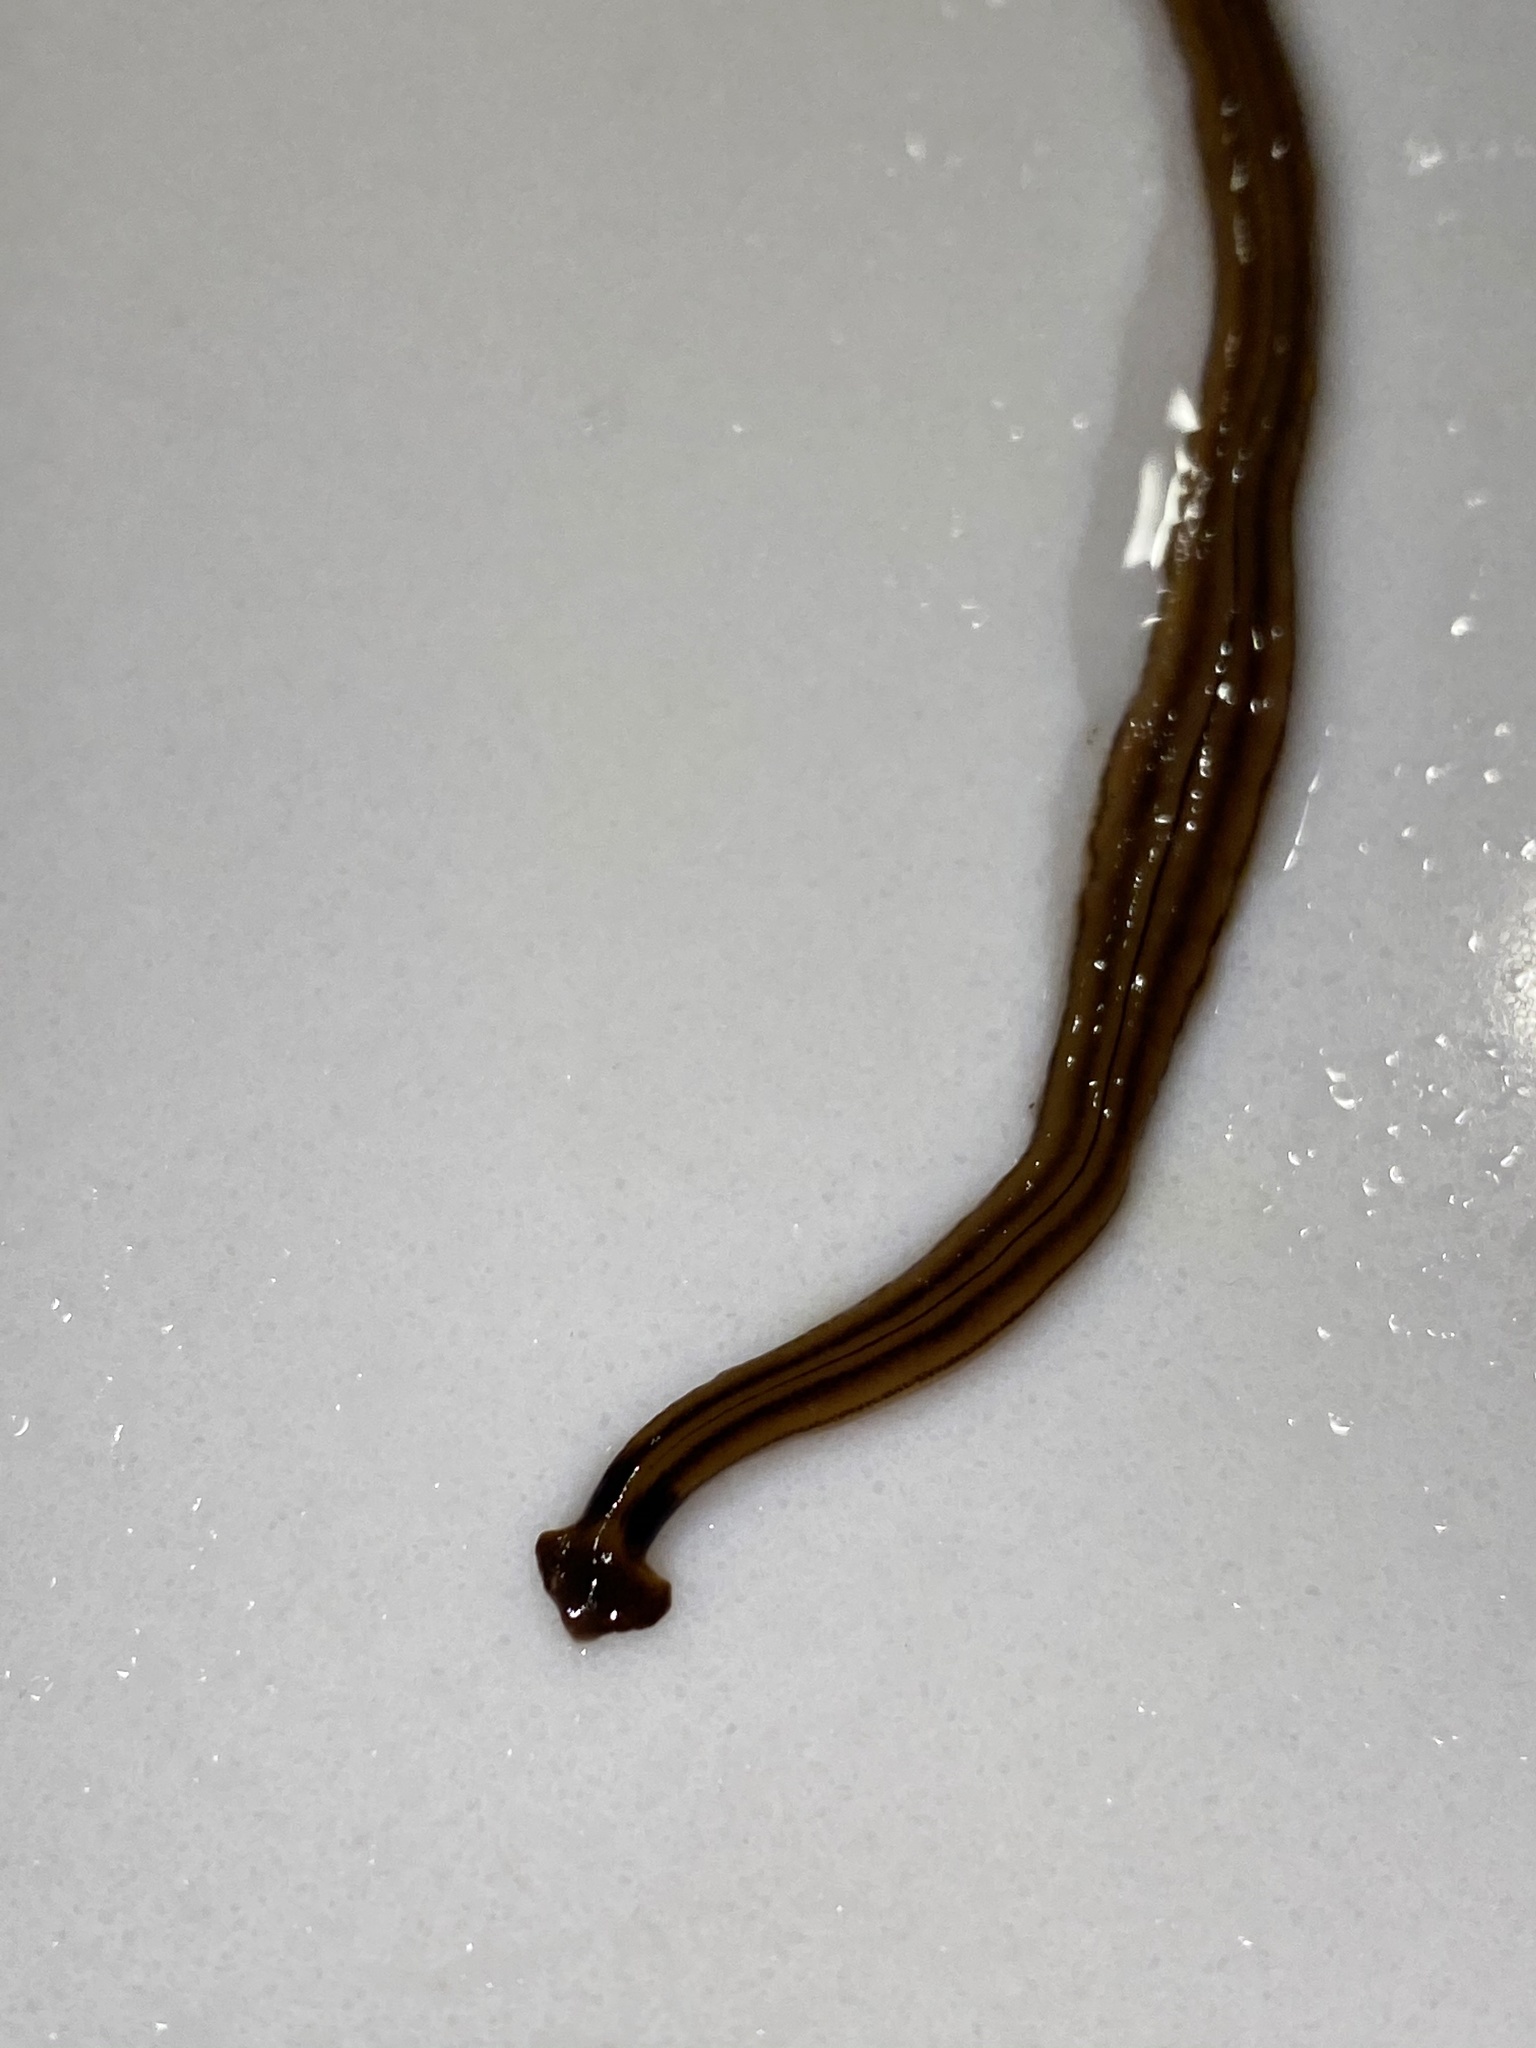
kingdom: Animalia
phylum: Platyhelminthes
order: Tricladida
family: Geoplanidae
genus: Bipalium
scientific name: Bipalium kewense
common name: Hammerhead flatworm
